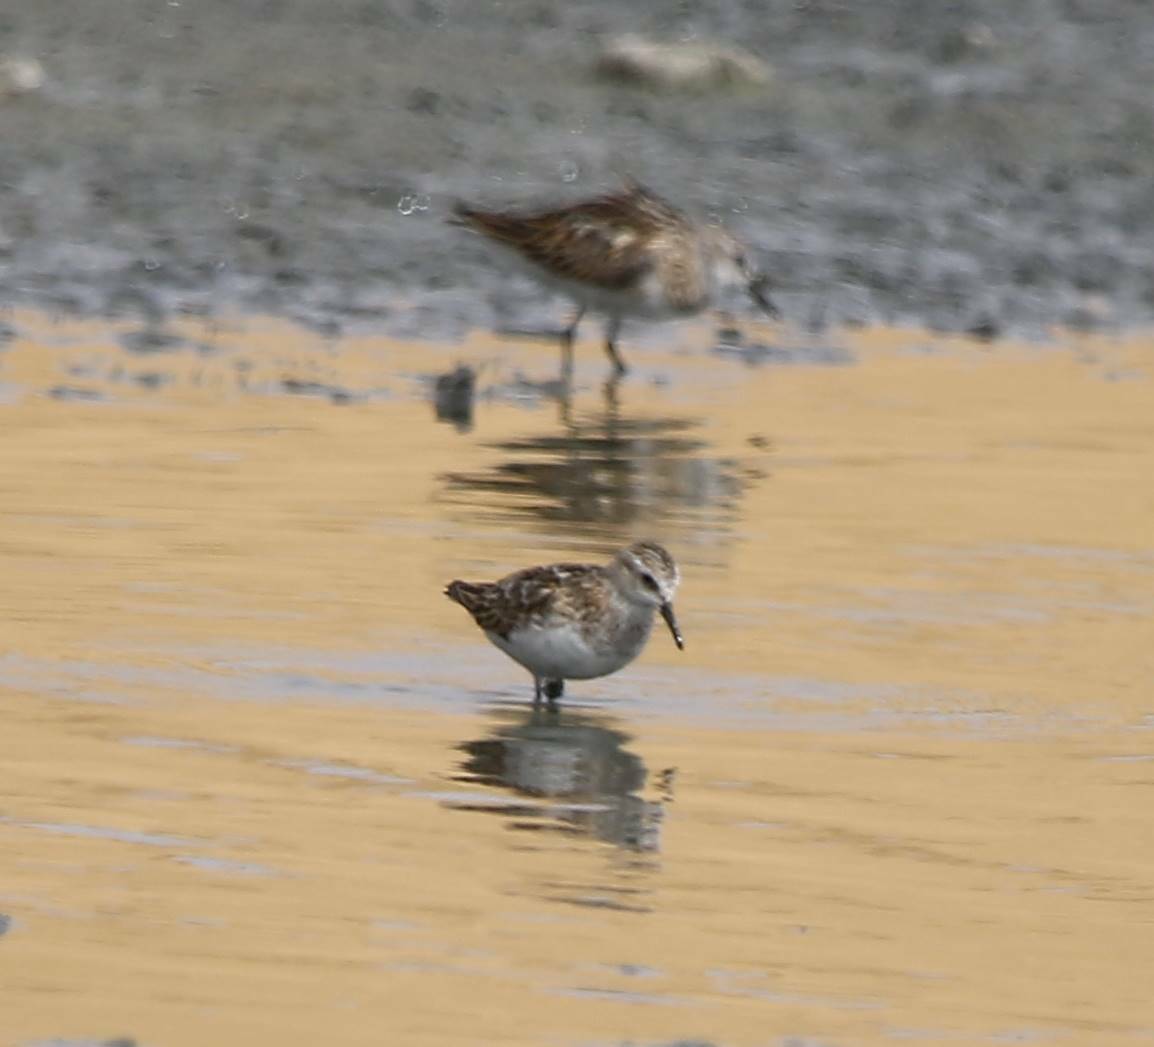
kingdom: Animalia
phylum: Chordata
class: Aves
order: Charadriiformes
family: Scolopacidae
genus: Calidris
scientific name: Calidris minuta
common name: Little stint
